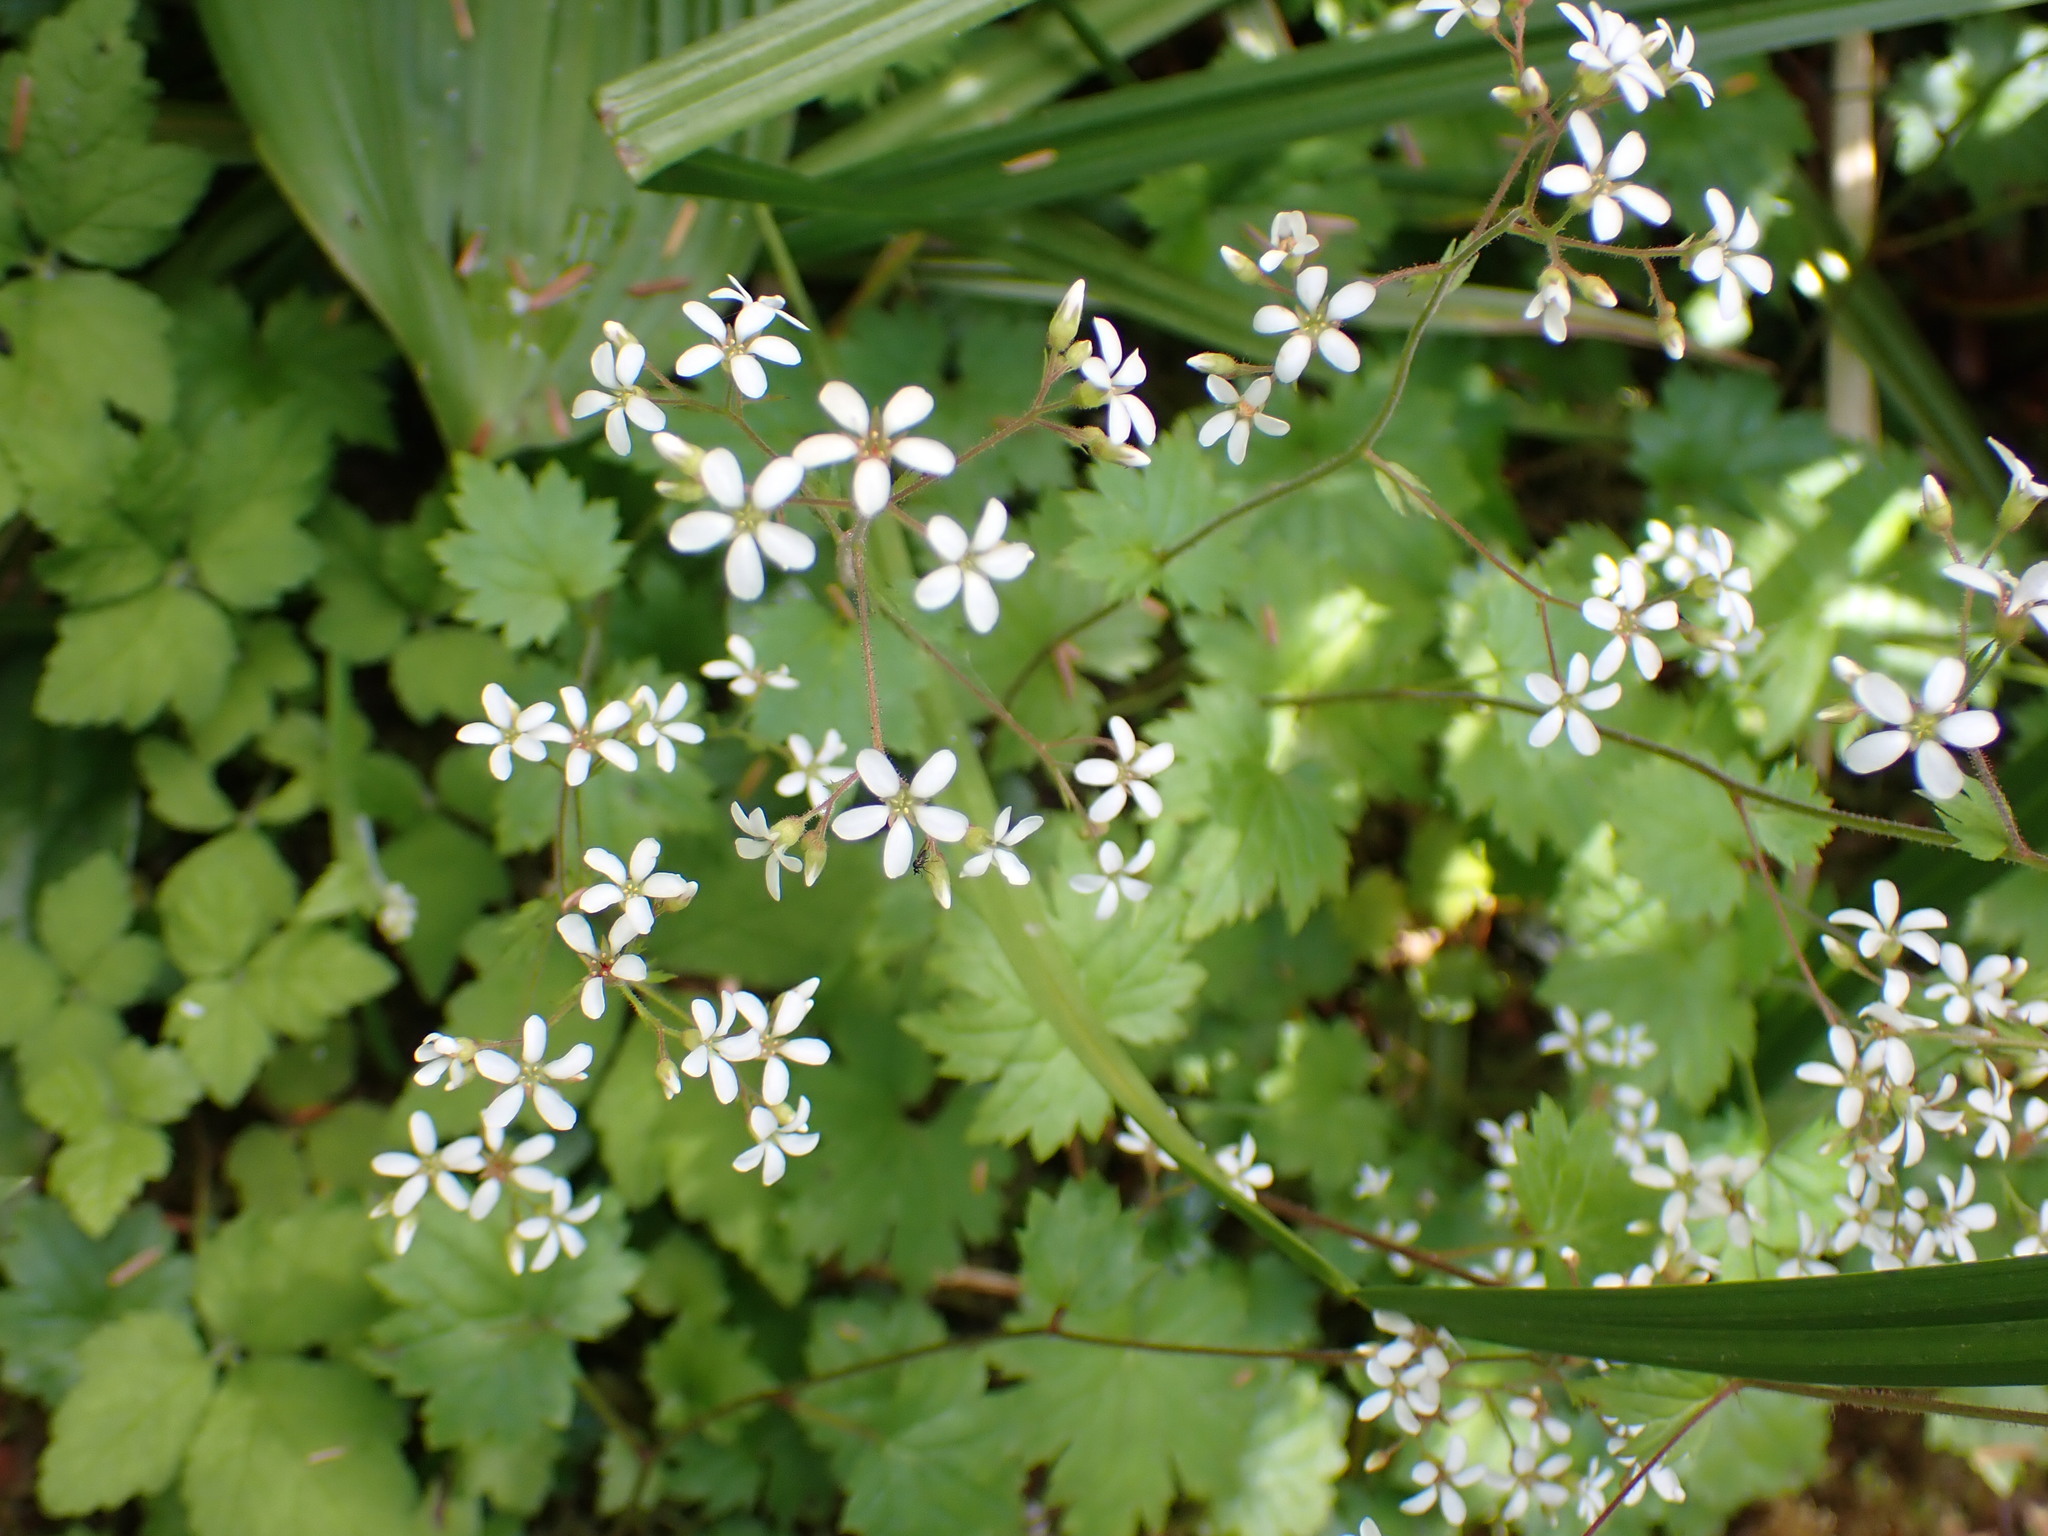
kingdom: Plantae
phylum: Tracheophyta
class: Magnoliopsida
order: Saxifragales
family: Saxifragaceae
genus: Boykinia
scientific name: Boykinia occidentalis
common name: Coast boykinia
